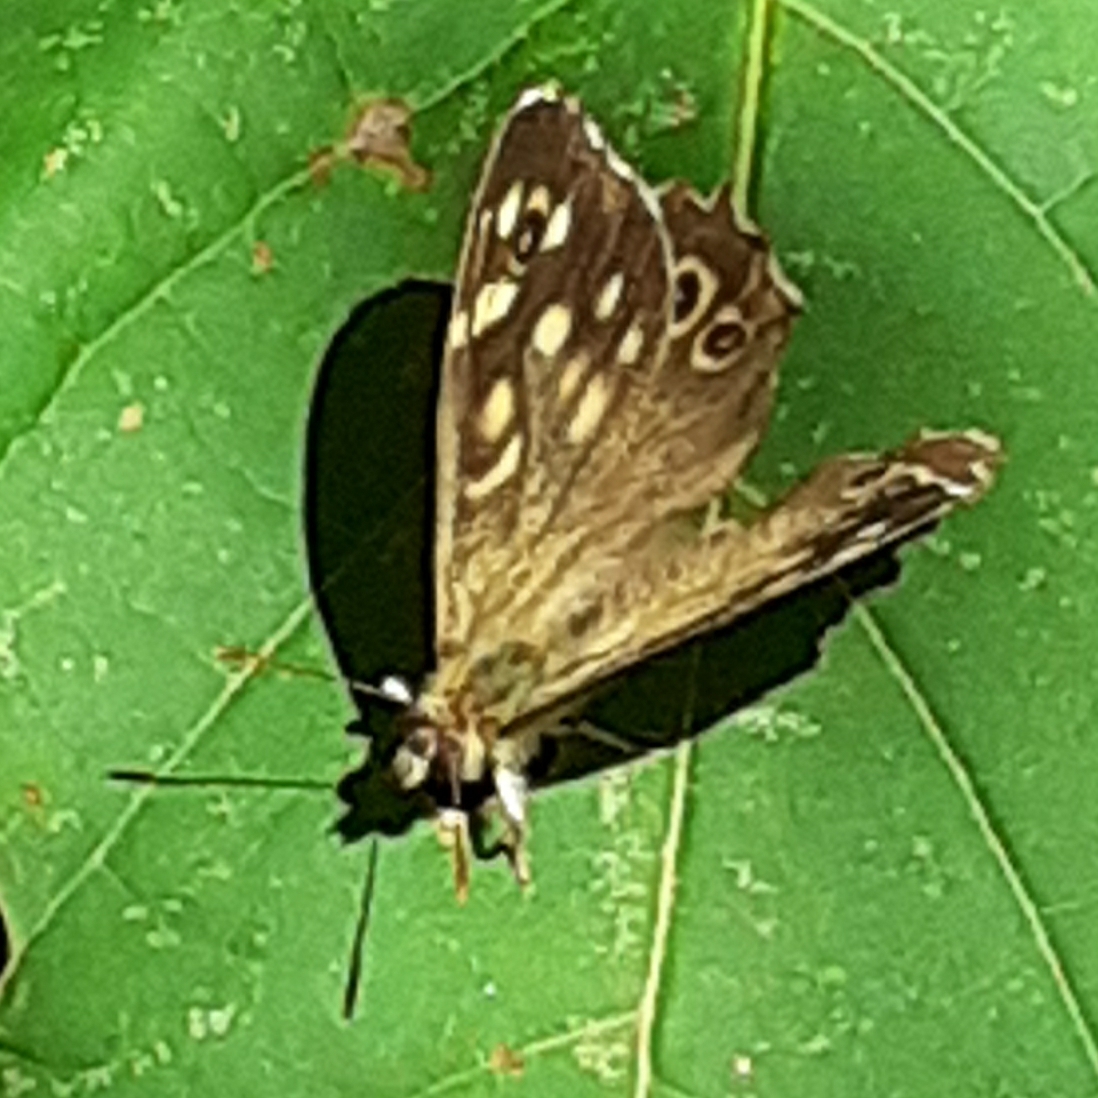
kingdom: Animalia
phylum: Arthropoda
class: Insecta
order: Lepidoptera
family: Nymphalidae
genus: Pararge
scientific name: Pararge aegeria
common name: Speckled wood
